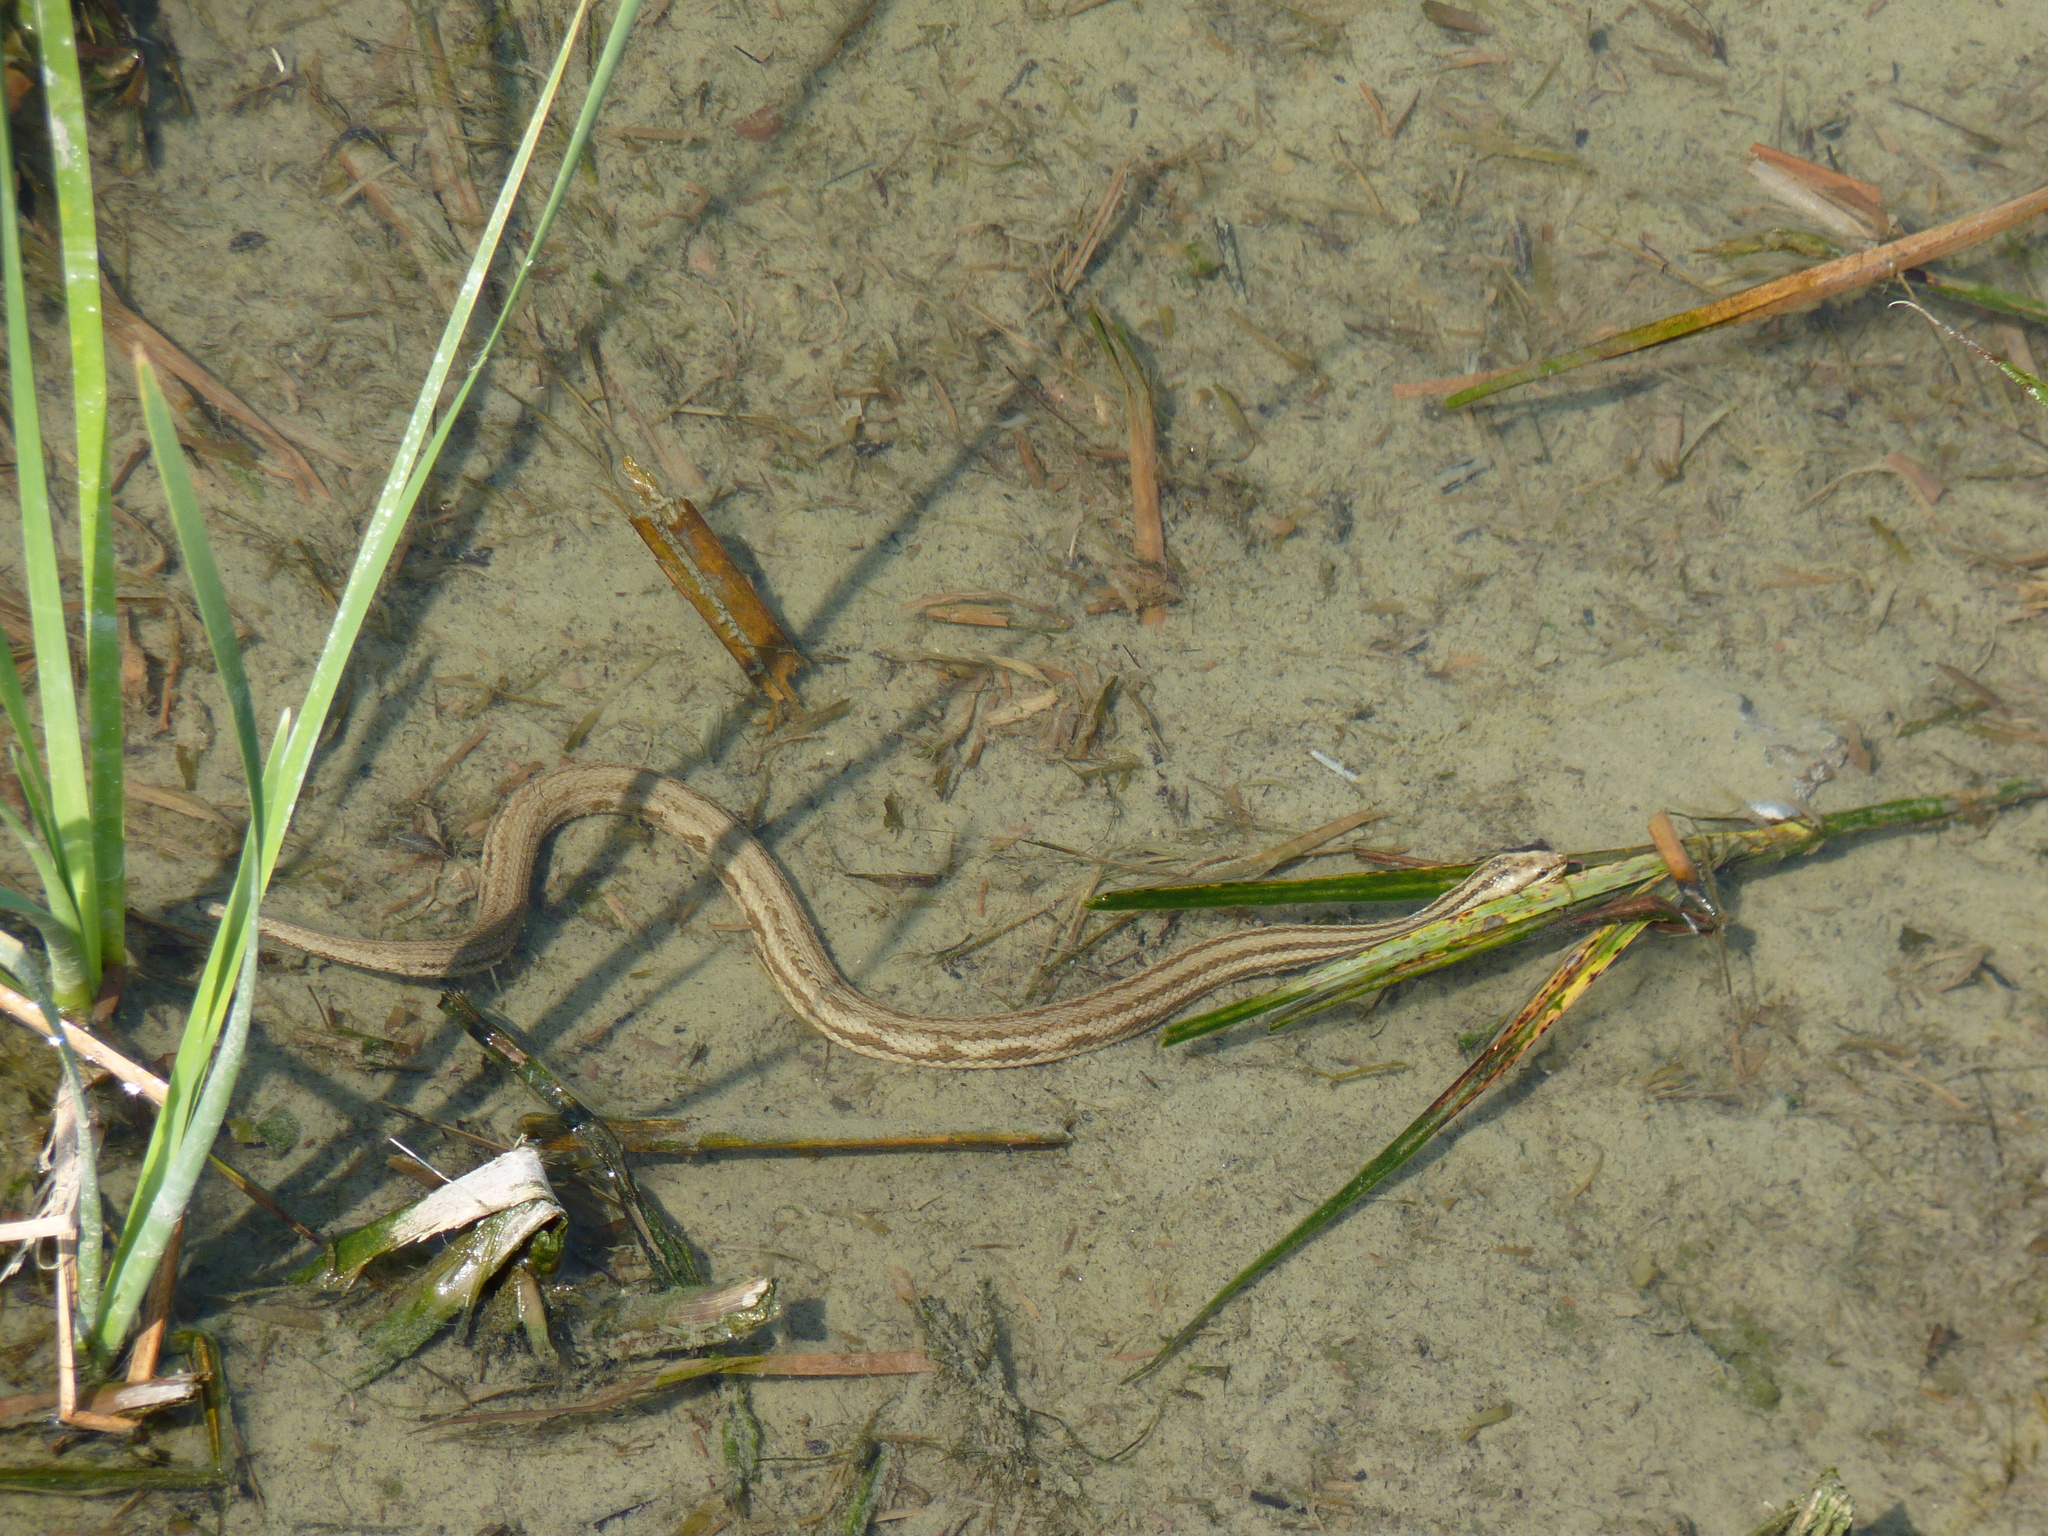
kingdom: Animalia
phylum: Chordata
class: Squamata
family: Colubridae
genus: Nerodia
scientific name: Nerodia clarkii
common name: Atlantic saltmarsh snake
